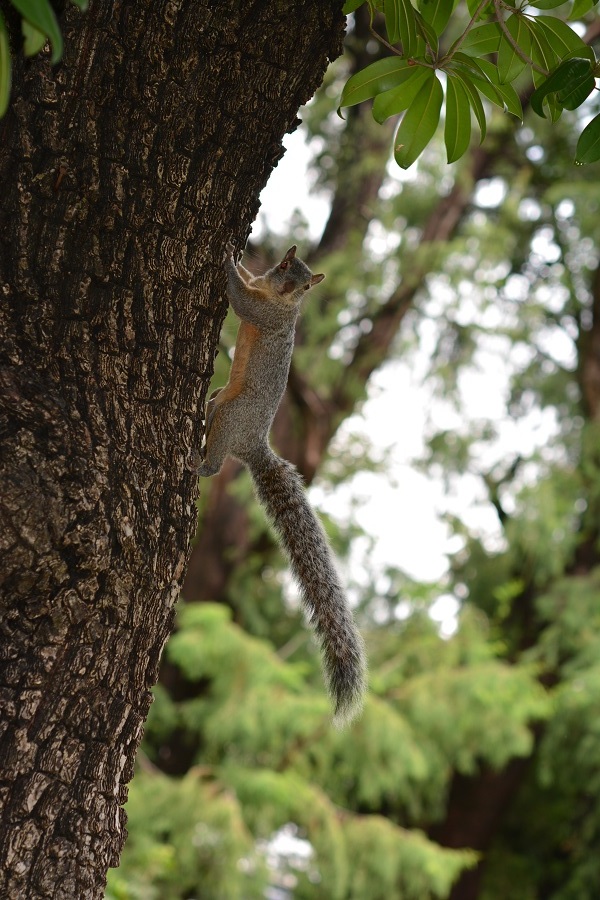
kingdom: Animalia
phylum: Chordata
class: Mammalia
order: Rodentia
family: Sciuridae
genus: Sciurus
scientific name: Sciurus aureogaster
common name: Red-bellied squirrel
